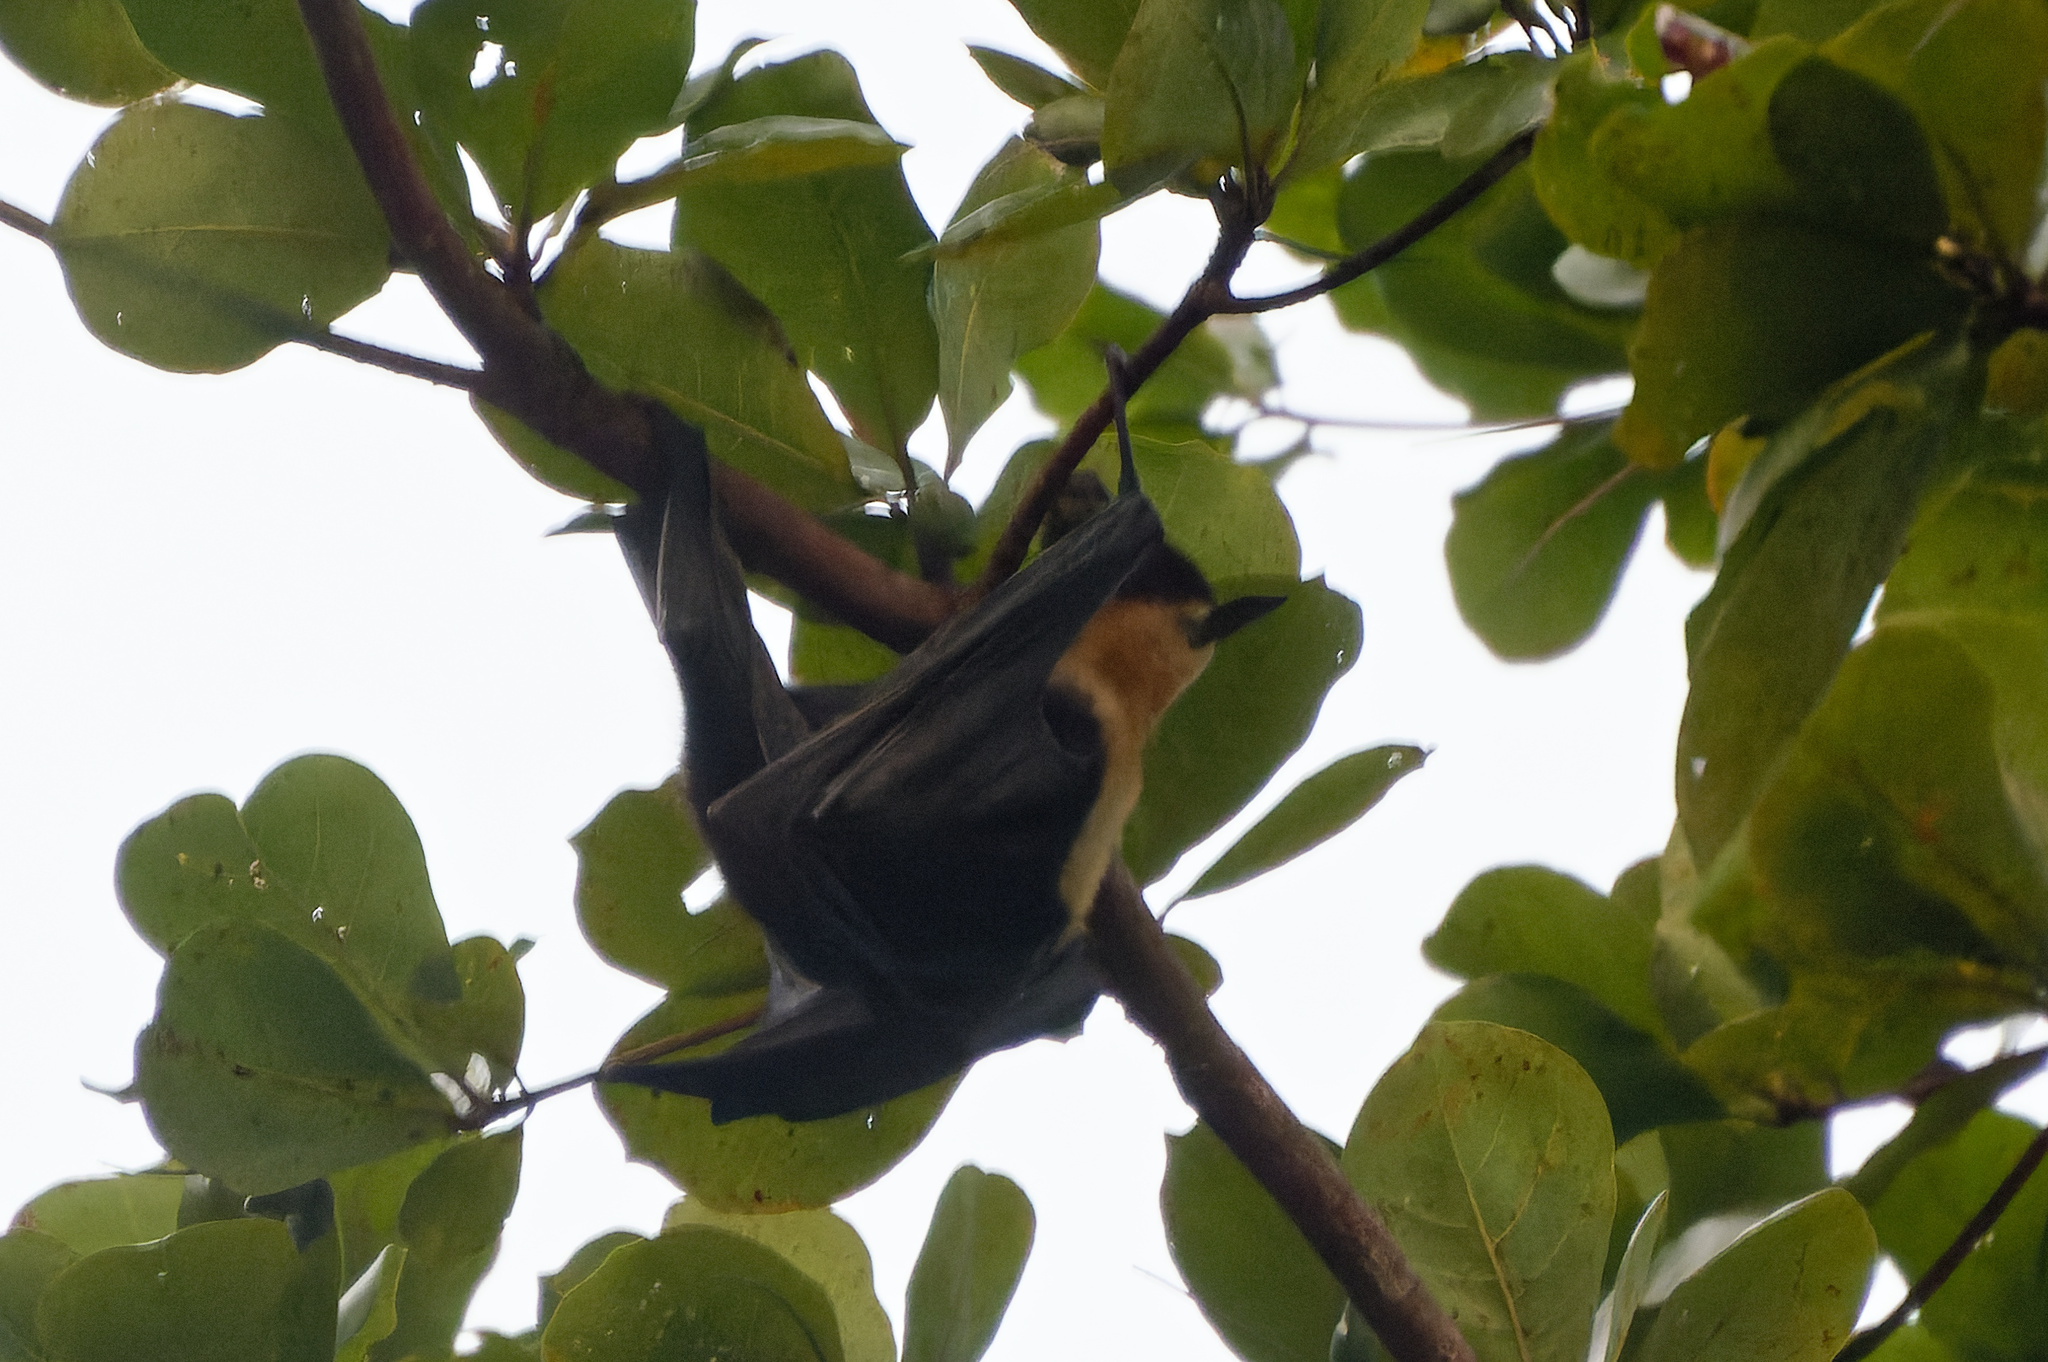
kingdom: Animalia
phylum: Chordata
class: Mammalia
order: Chiroptera
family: Pteropodidae
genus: Pteropus
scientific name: Pteropus conspicillatus
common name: Spectacled flying fox
